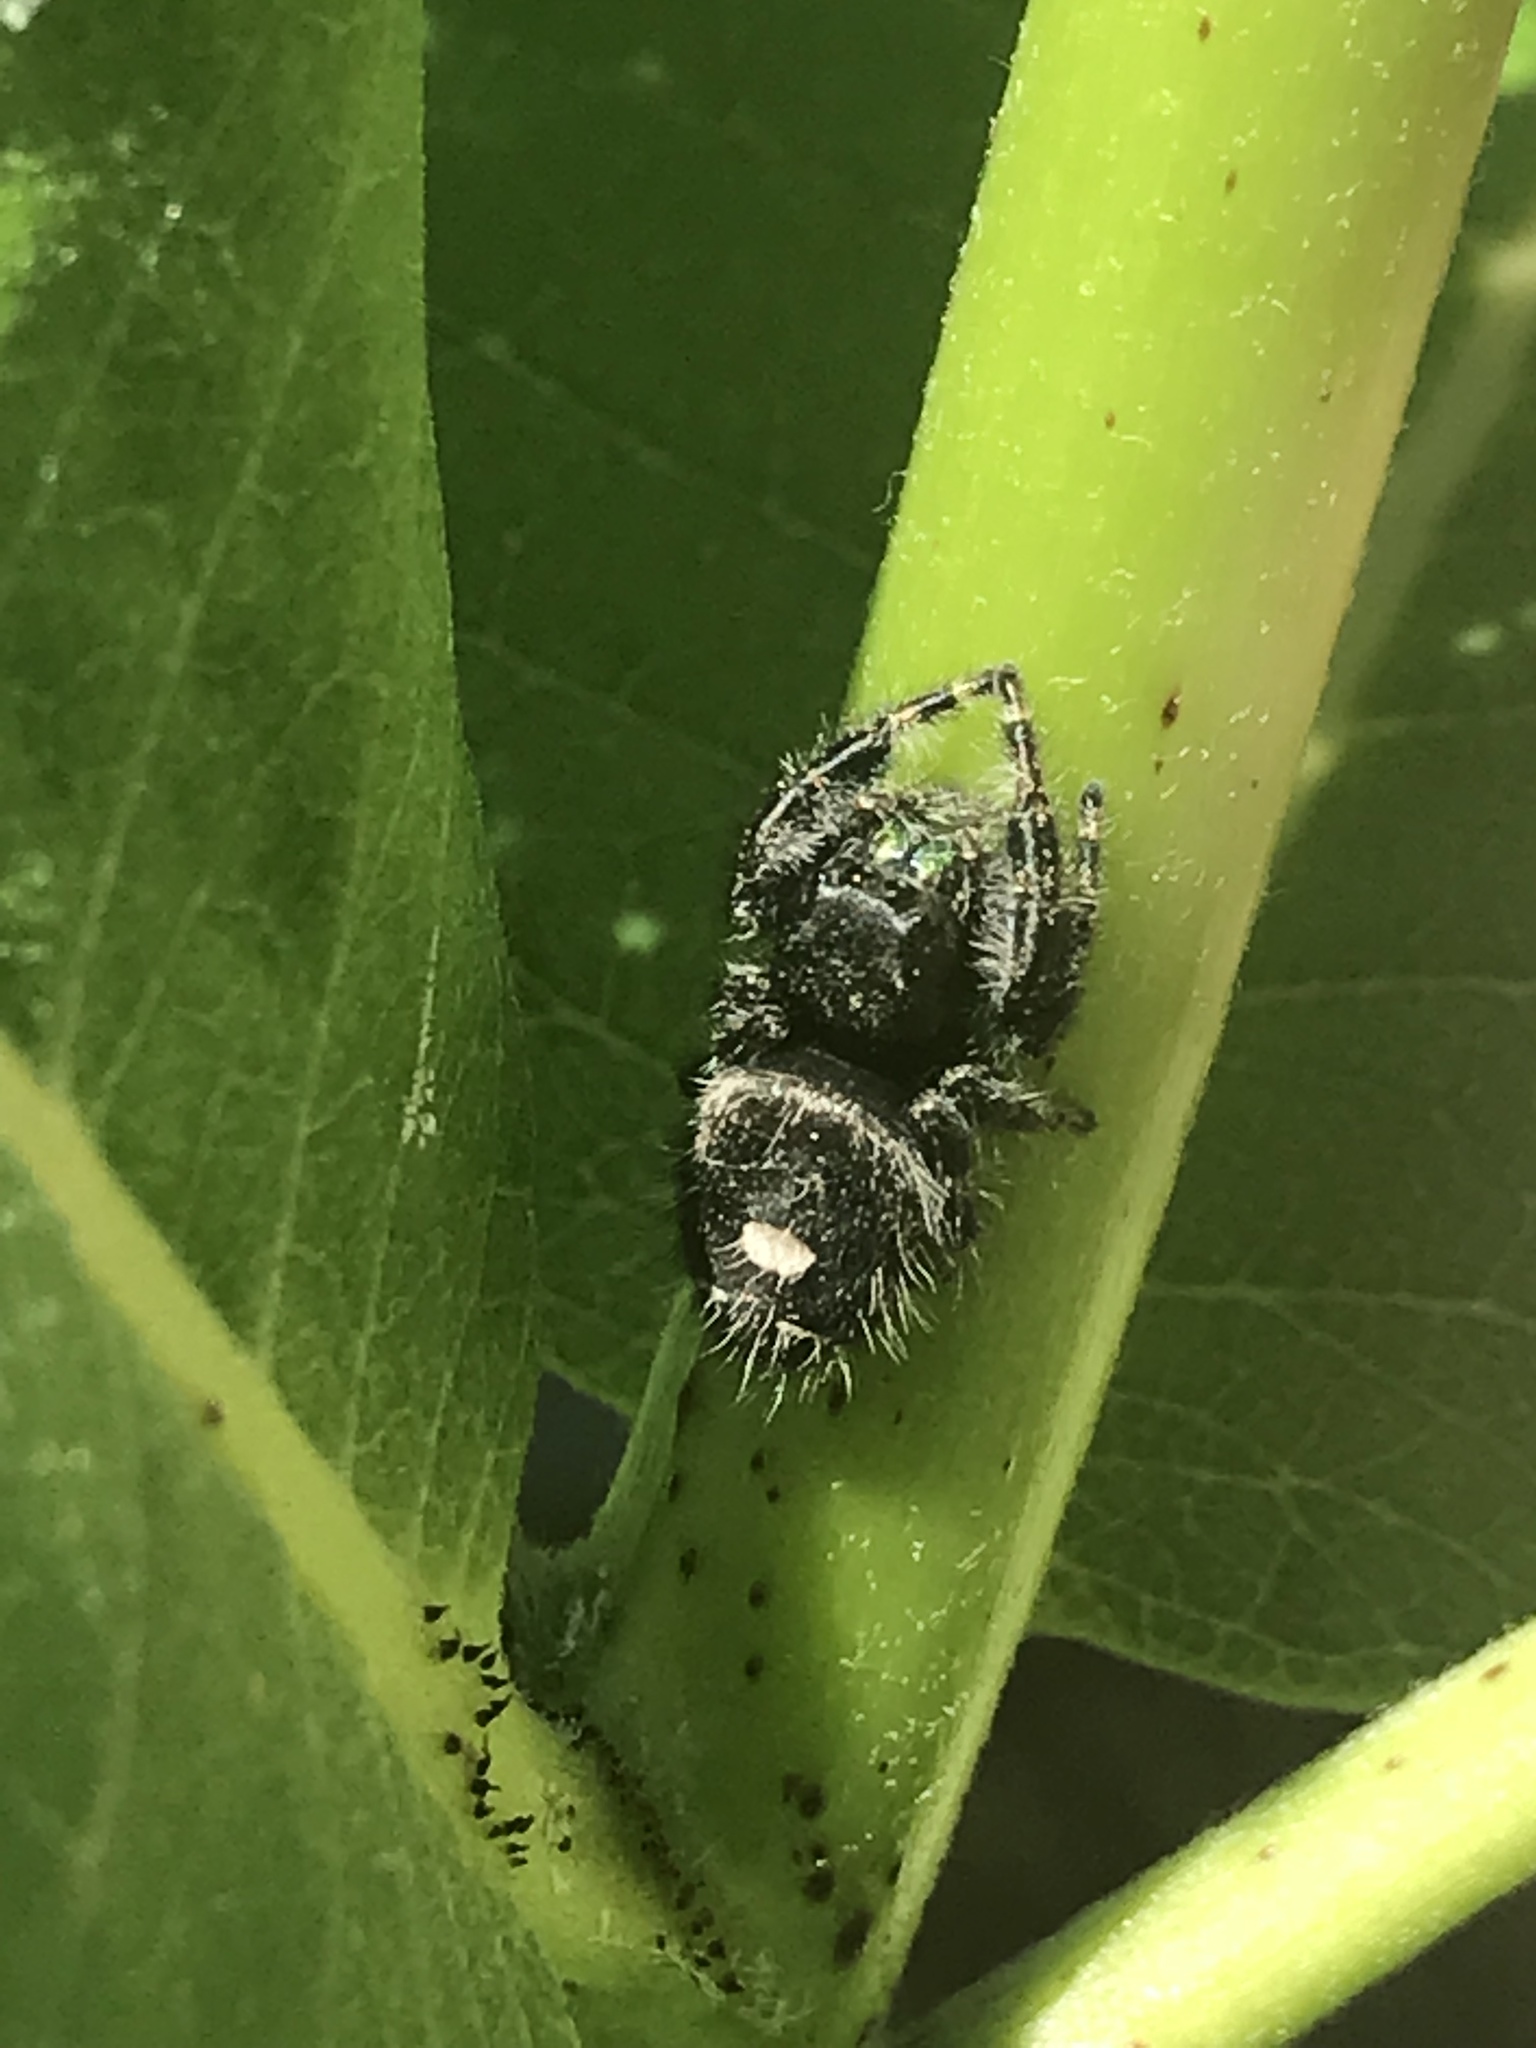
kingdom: Animalia
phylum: Arthropoda
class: Arachnida
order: Araneae
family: Salticidae
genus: Phidippus
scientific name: Phidippus audax
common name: Bold jumper
